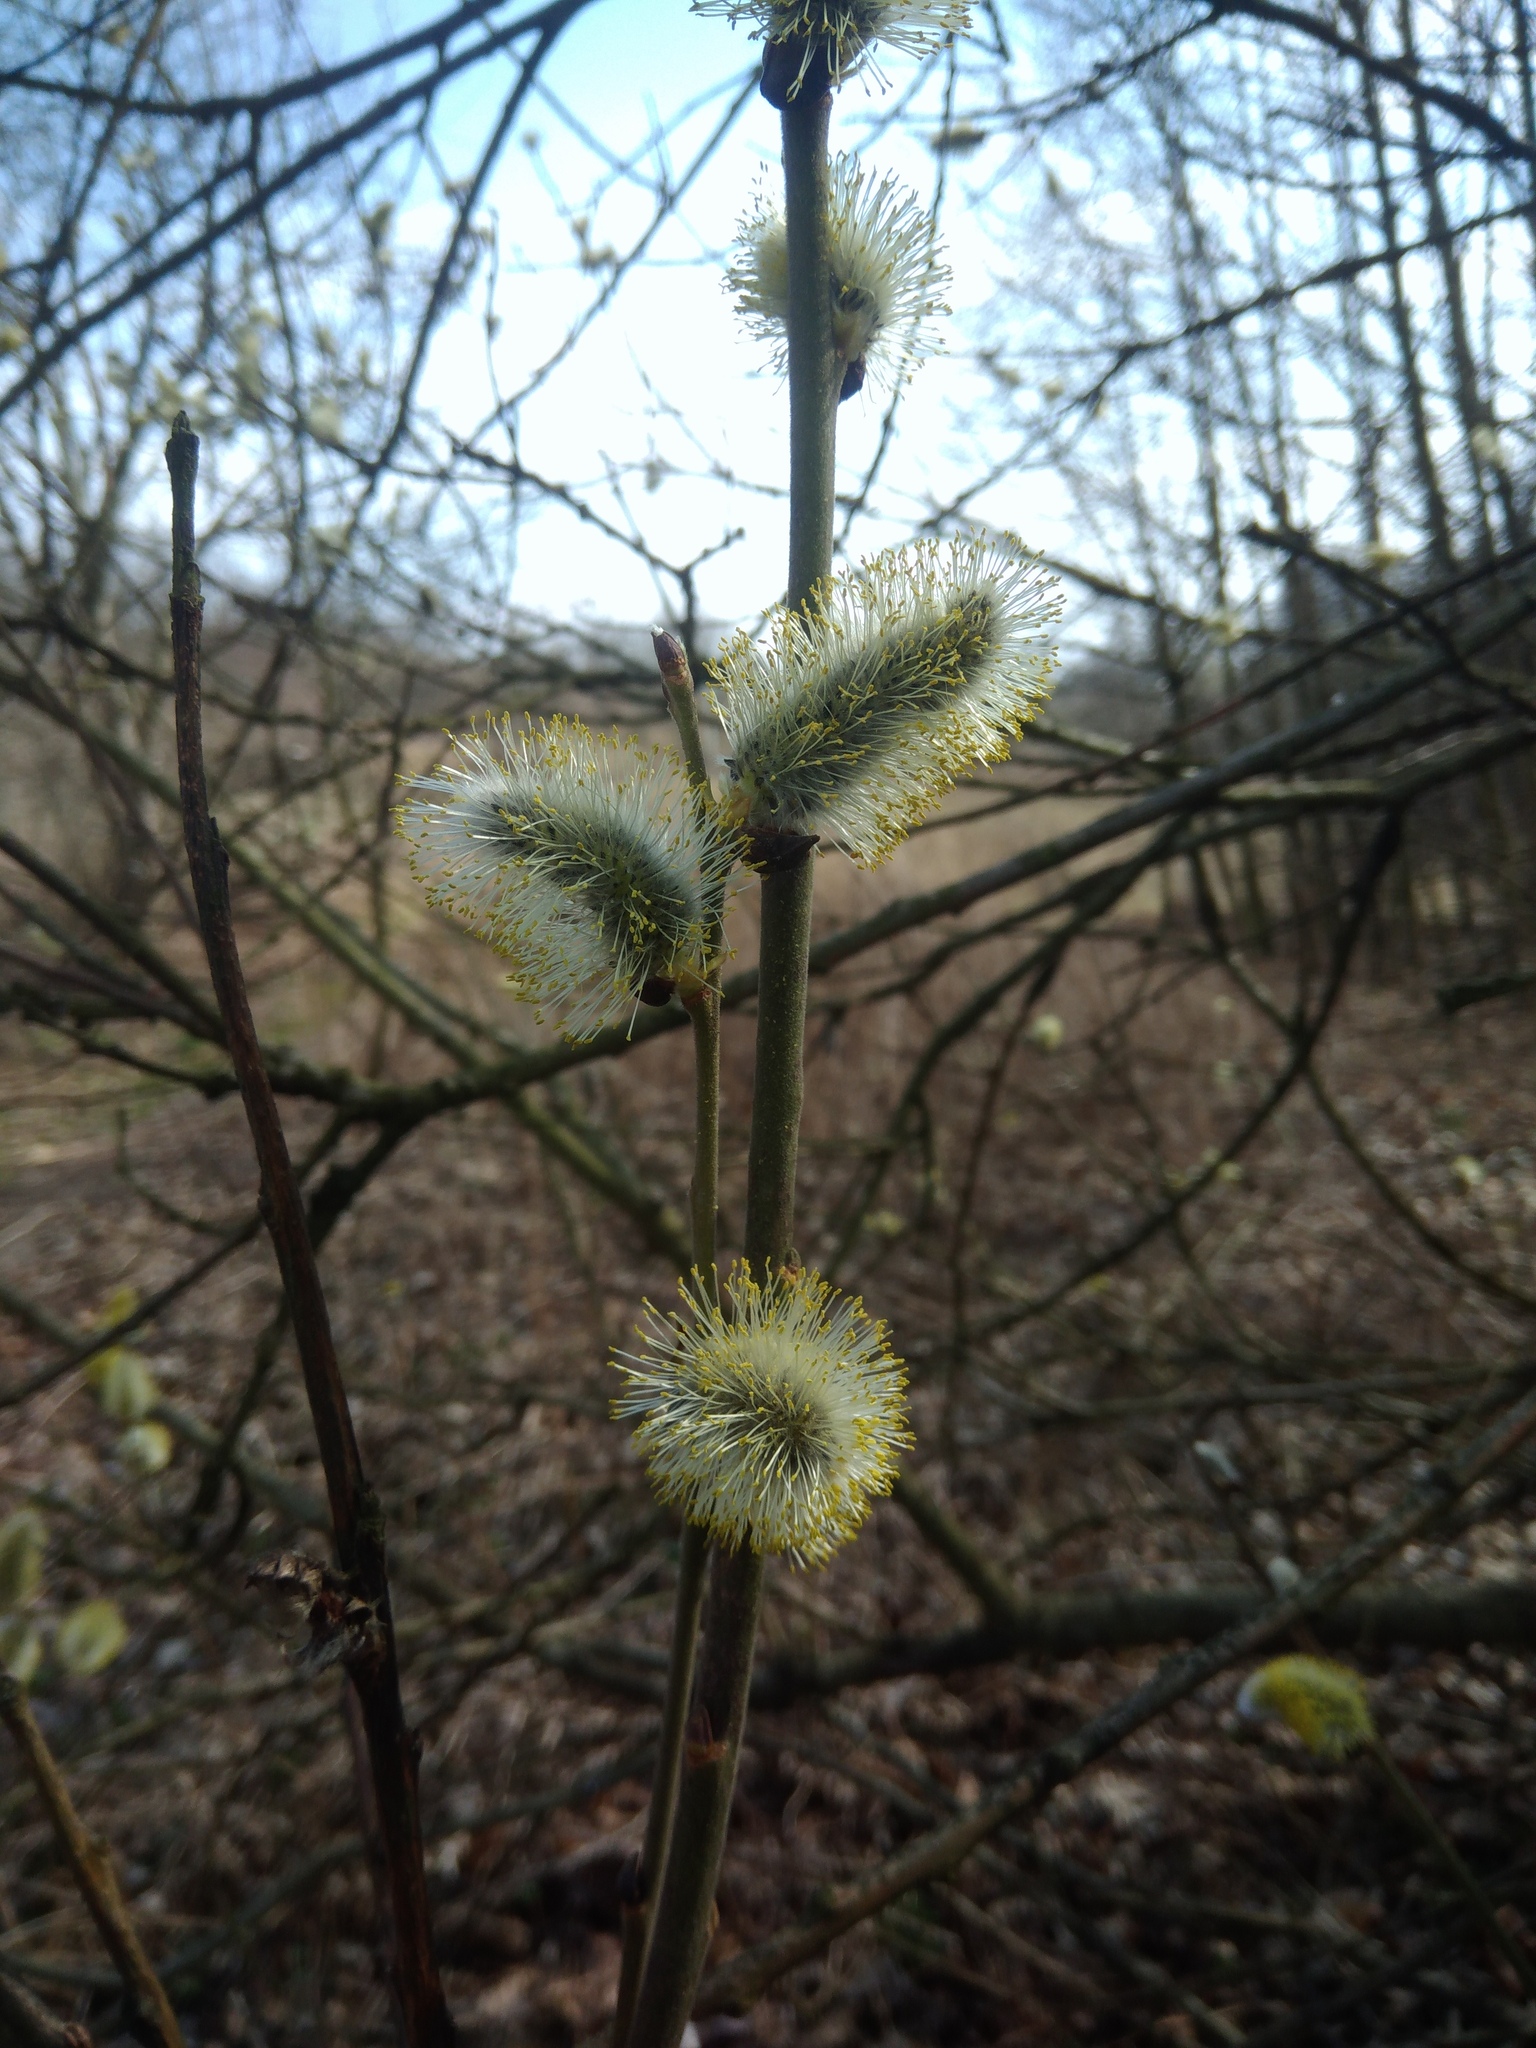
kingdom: Plantae
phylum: Tracheophyta
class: Magnoliopsida
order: Malpighiales
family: Salicaceae
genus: Salix
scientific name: Salix caprea
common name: Goat willow
